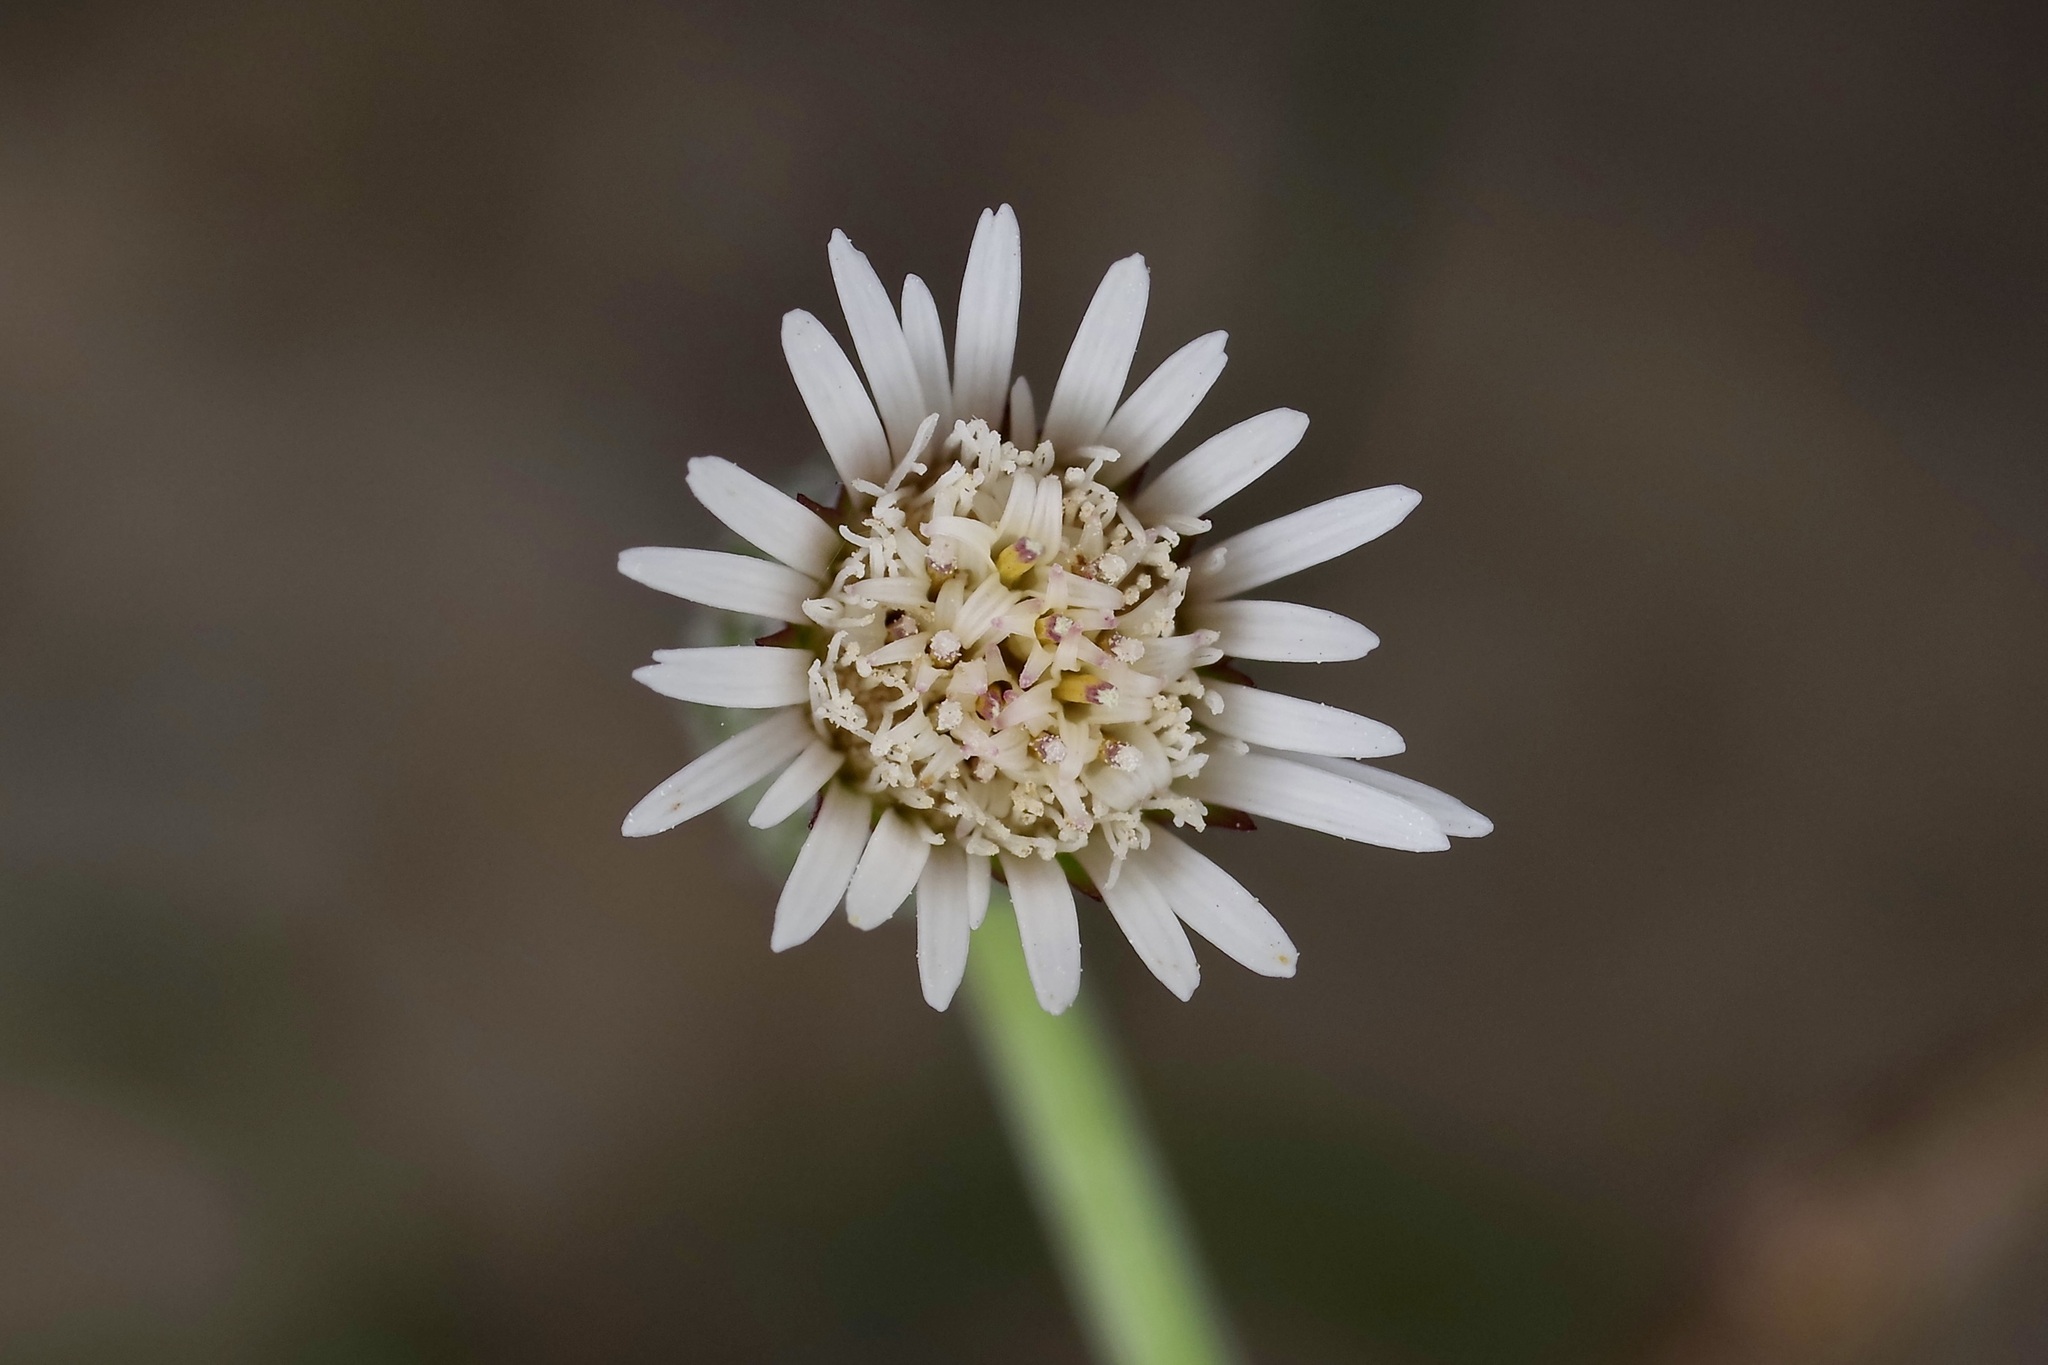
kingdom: Plantae
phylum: Tracheophyta
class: Magnoliopsida
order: Asterales
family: Asteraceae
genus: Chaptalia
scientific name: Chaptalia texana
